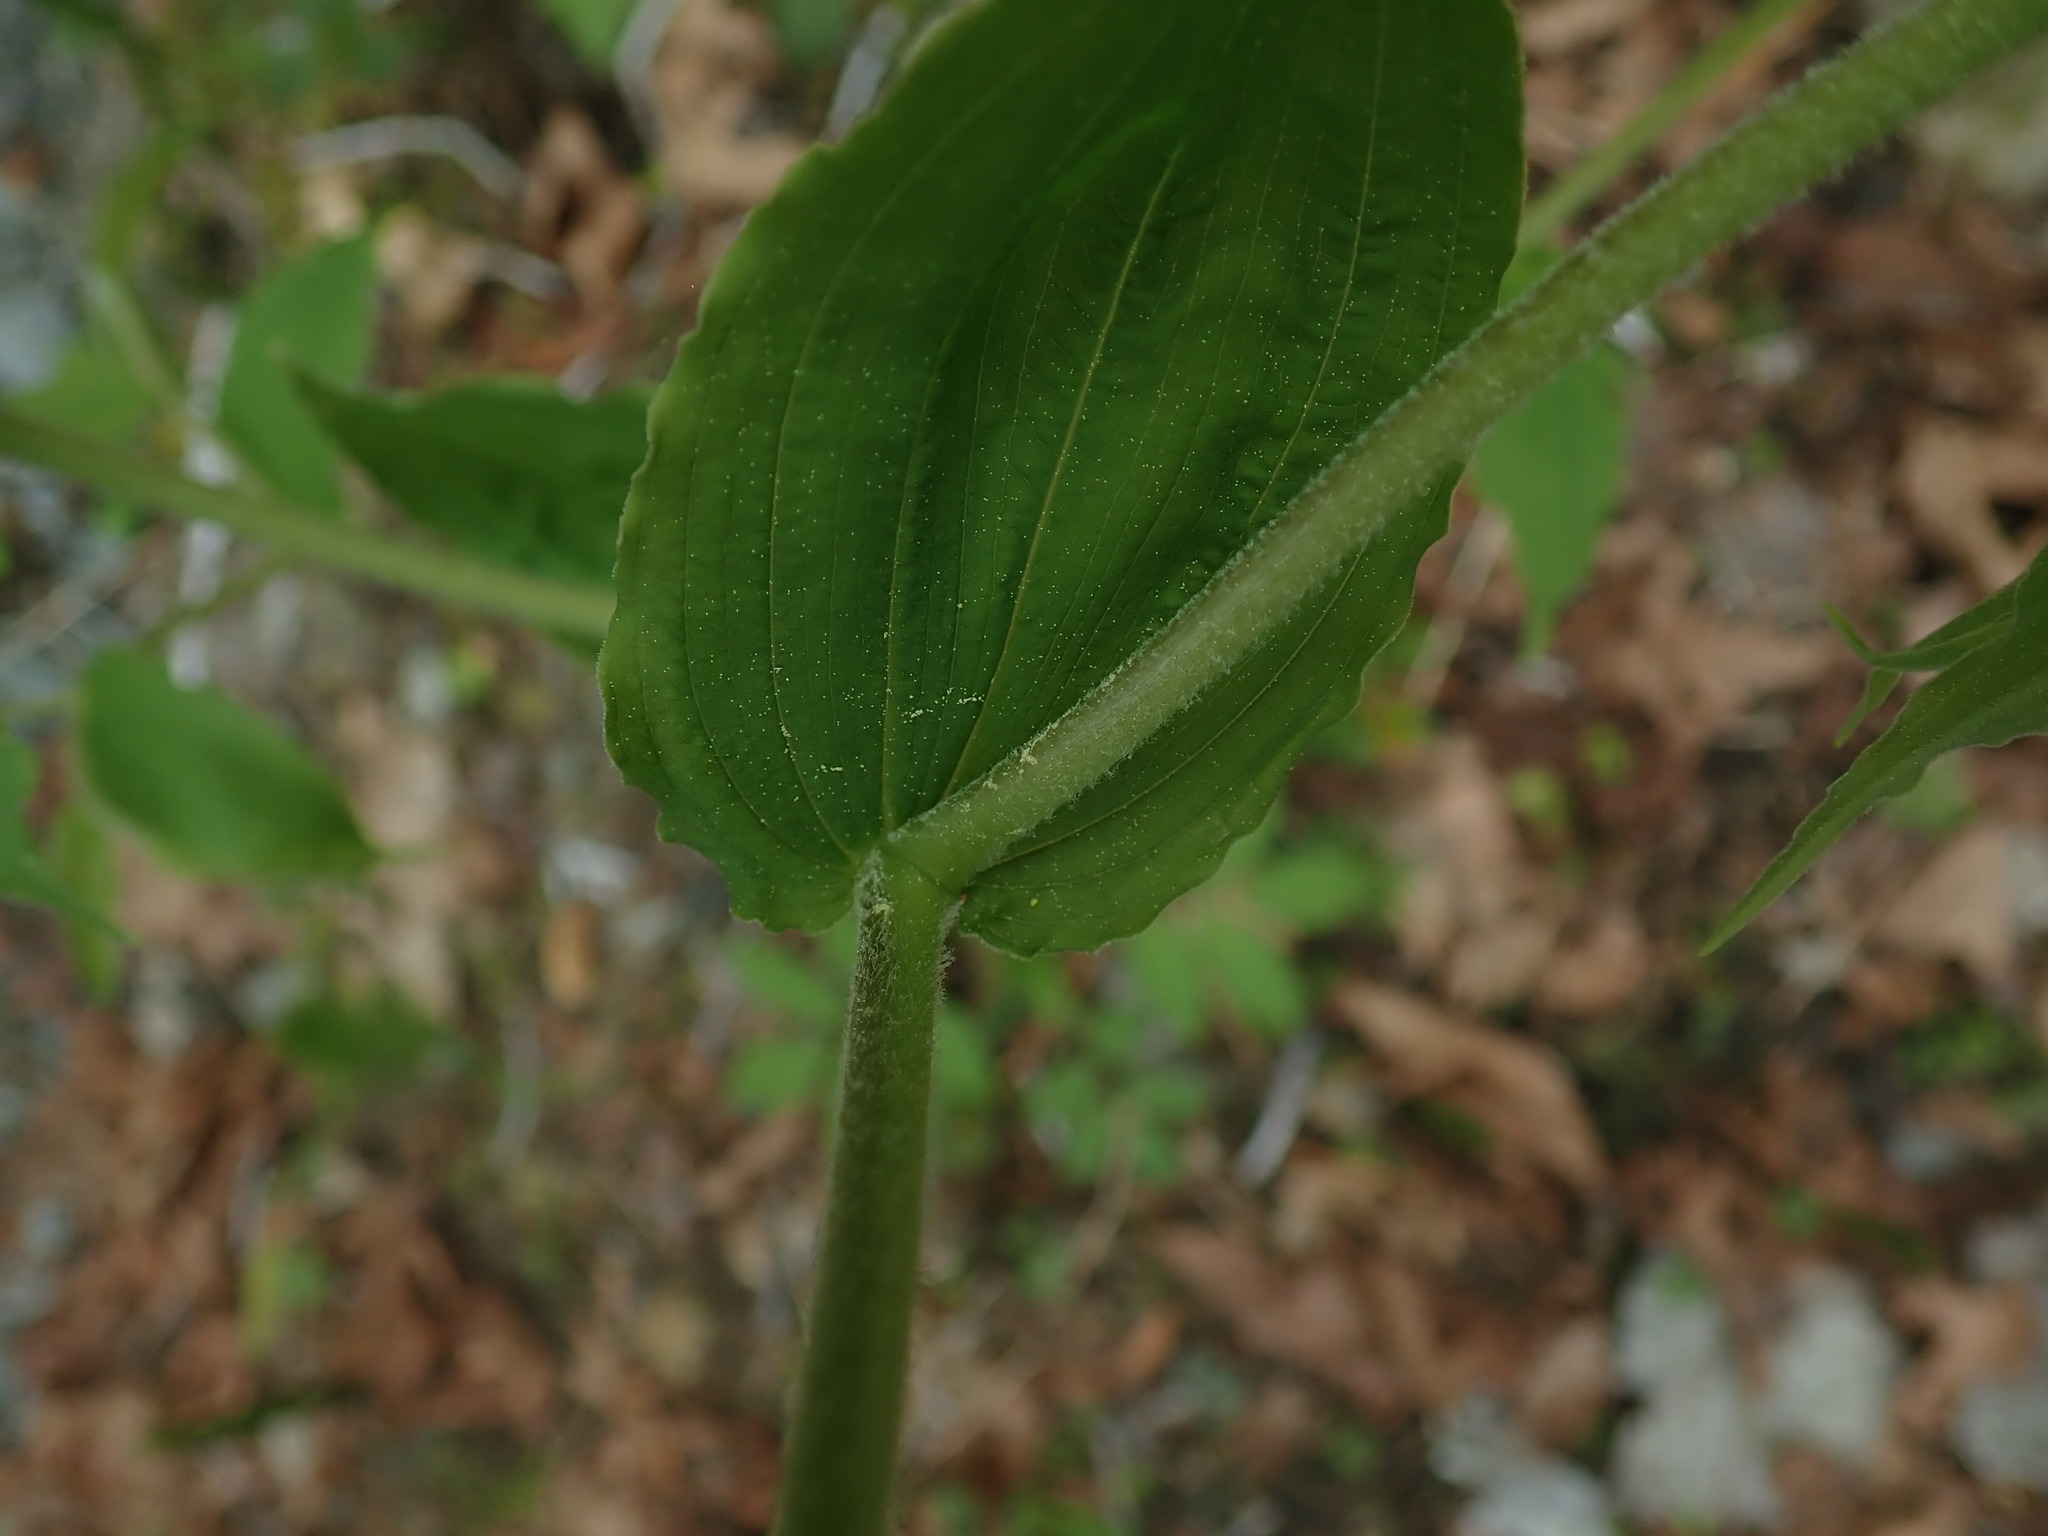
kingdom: Plantae
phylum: Tracheophyta
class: Liliopsida
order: Liliales
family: Liliaceae
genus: Prosartes
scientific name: Prosartes hookeri
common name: Fairy-bells
